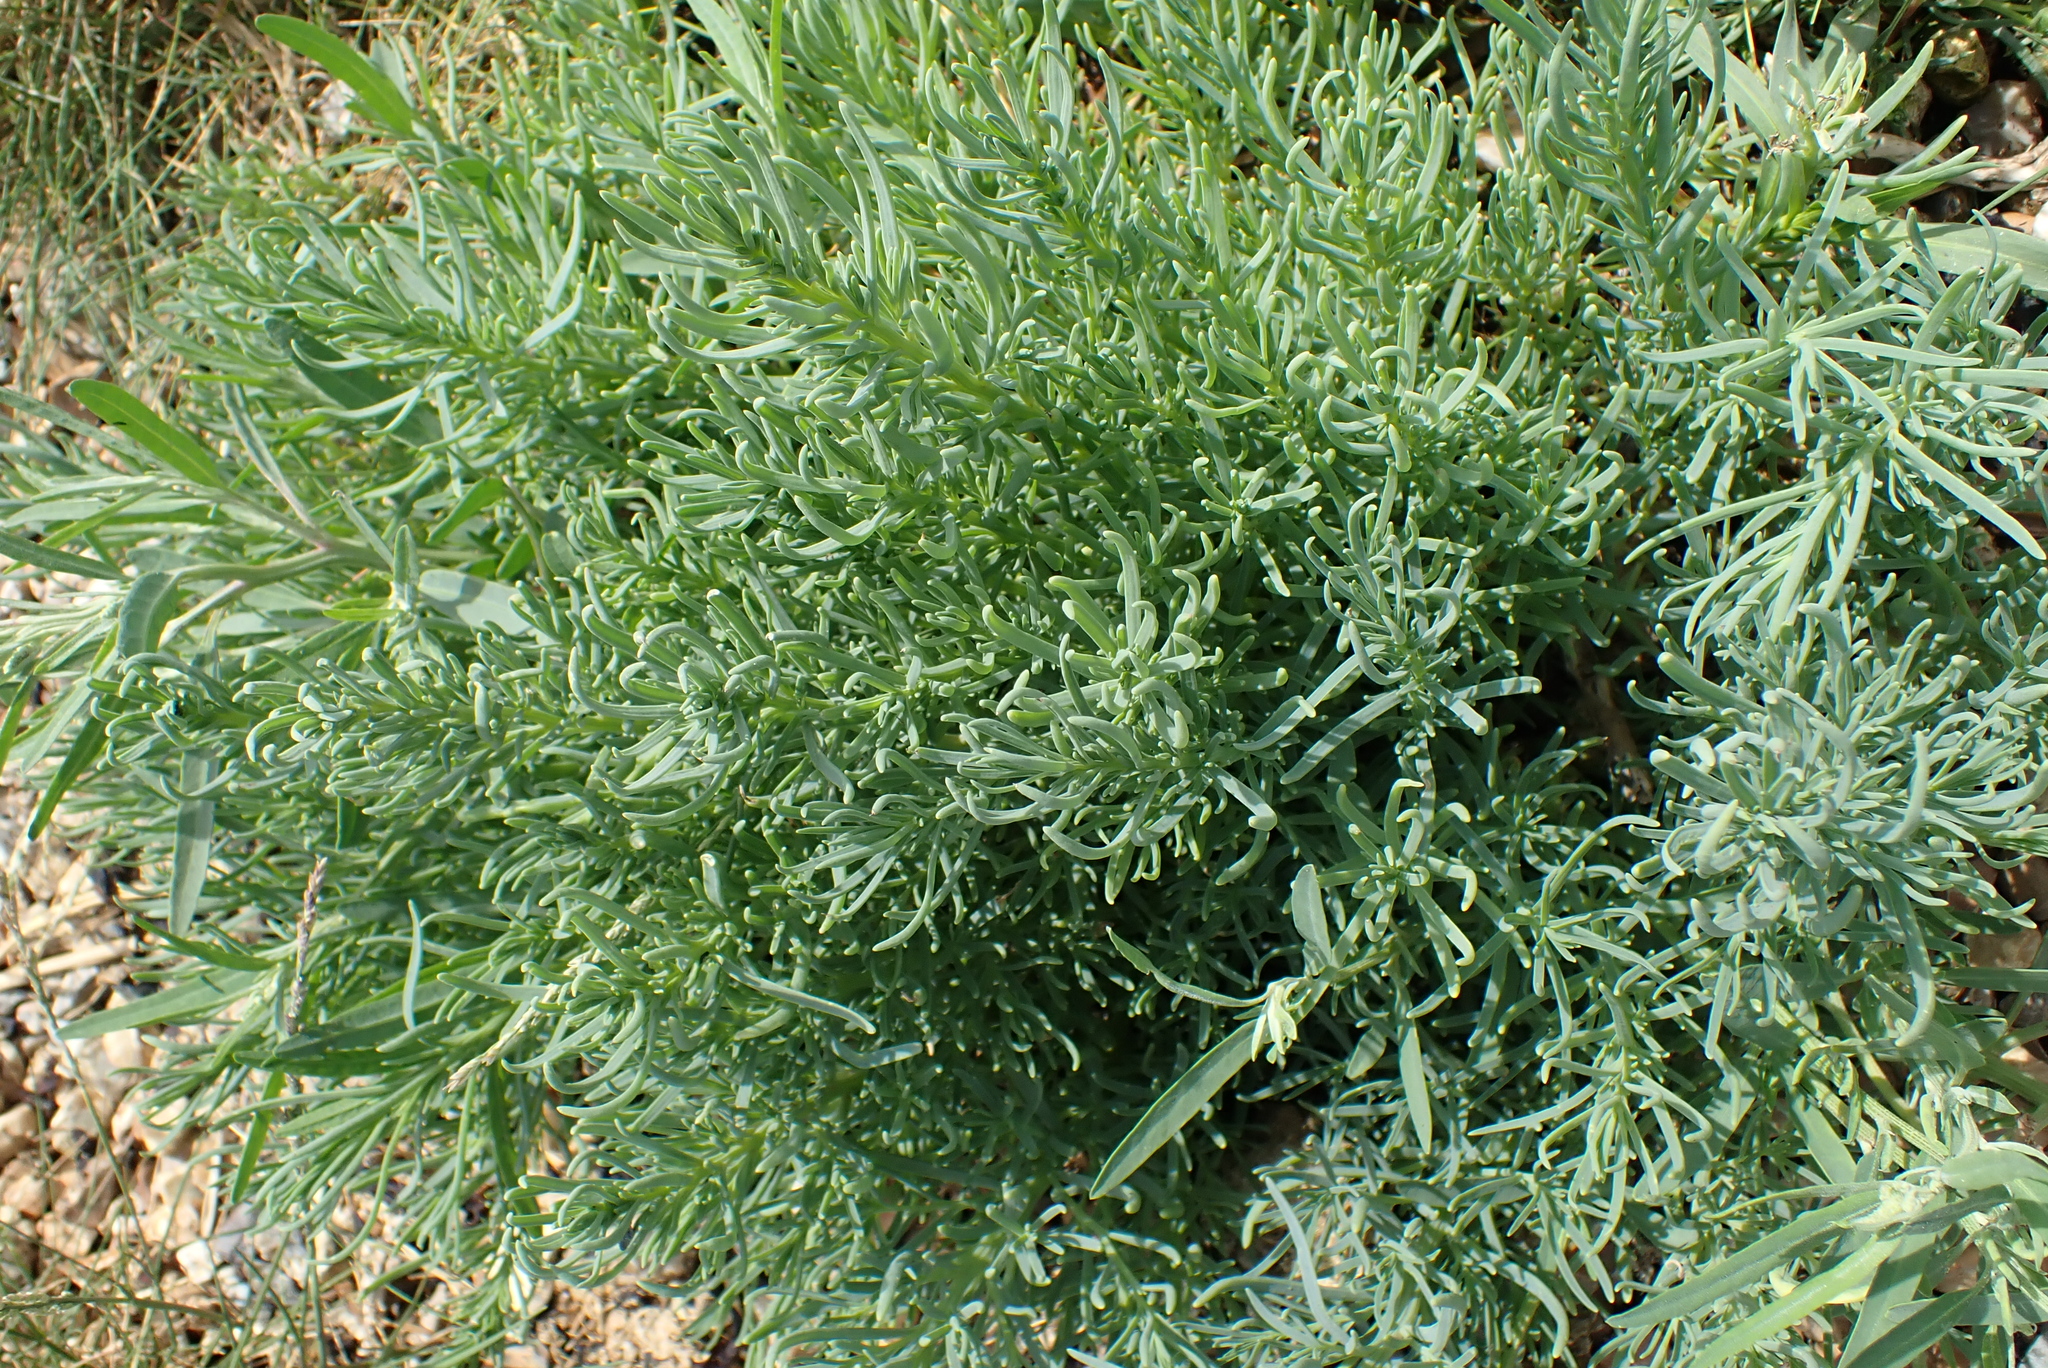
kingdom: Plantae
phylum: Tracheophyta
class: Magnoliopsida
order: Caryophyllales
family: Amaranthaceae
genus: Suaeda
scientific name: Suaeda maritima
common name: Annual sea-blite
